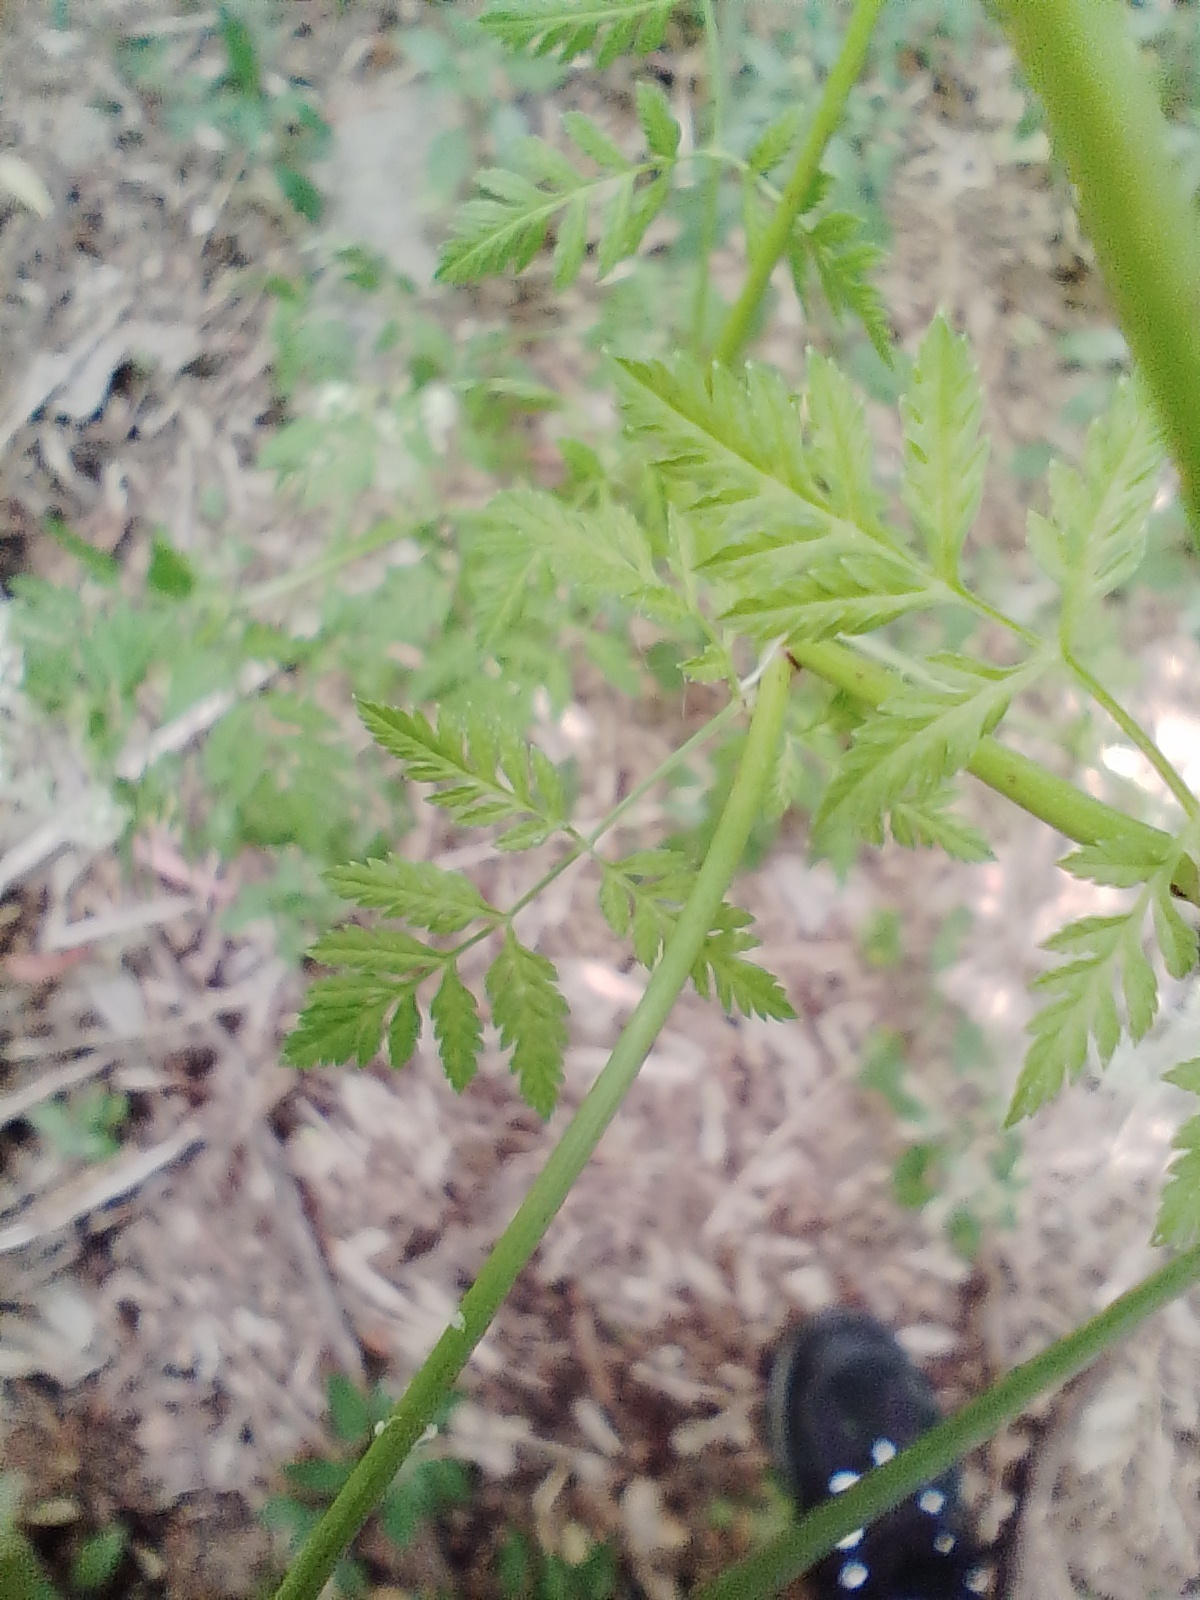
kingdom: Plantae
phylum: Tracheophyta
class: Magnoliopsida
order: Apiales
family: Apiaceae
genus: Conium
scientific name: Conium maculatum
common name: Hemlock
